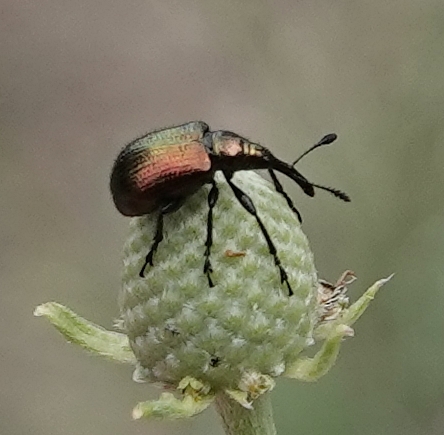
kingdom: Animalia
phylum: Arthropoda
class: Insecta
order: Coleoptera
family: Attelabidae
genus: Haplorhynchites
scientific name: Haplorhynchites eximius
